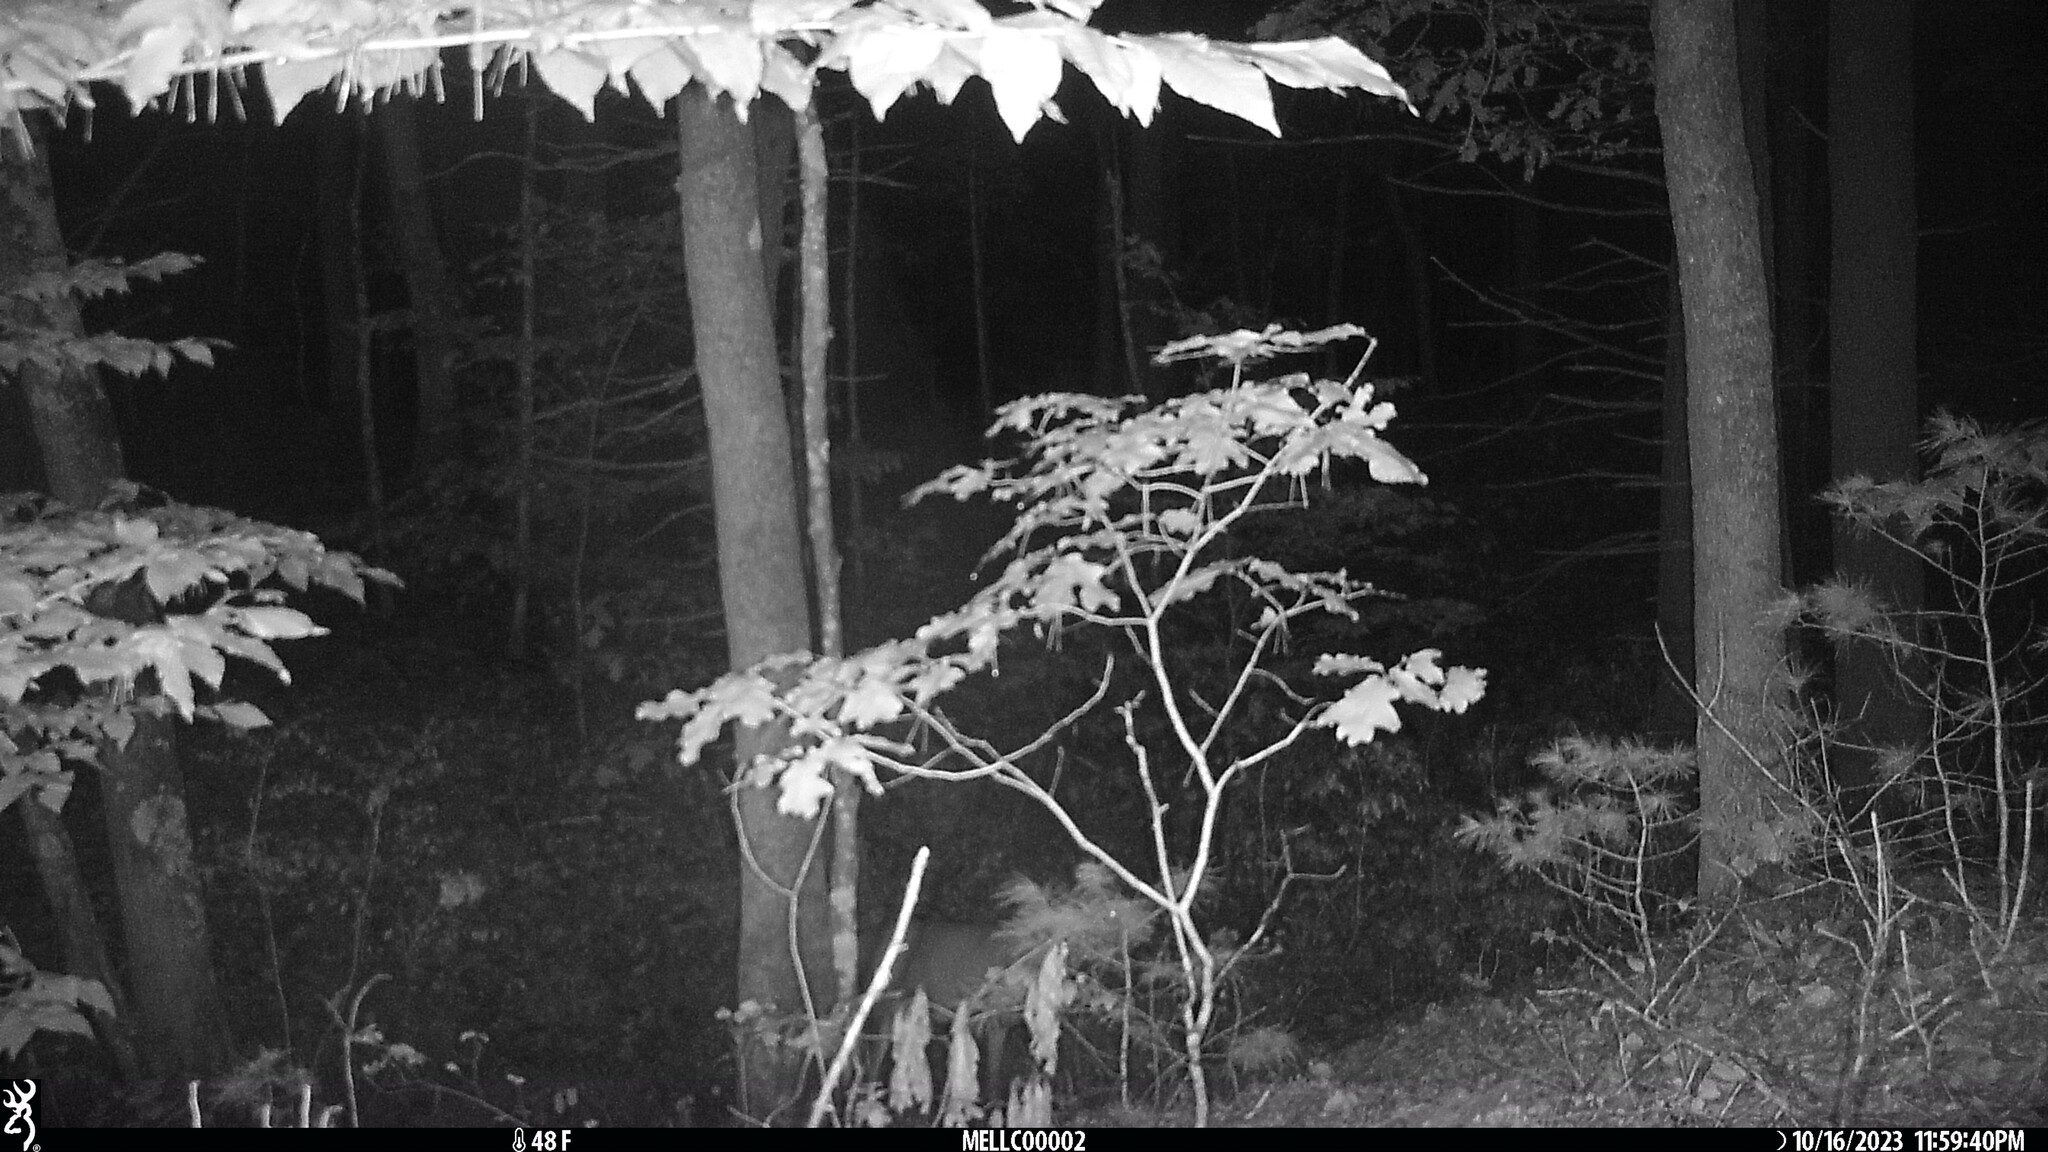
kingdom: Animalia
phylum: Chordata
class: Mammalia
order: Artiodactyla
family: Cervidae
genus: Odocoileus
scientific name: Odocoileus virginianus
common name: White-tailed deer
